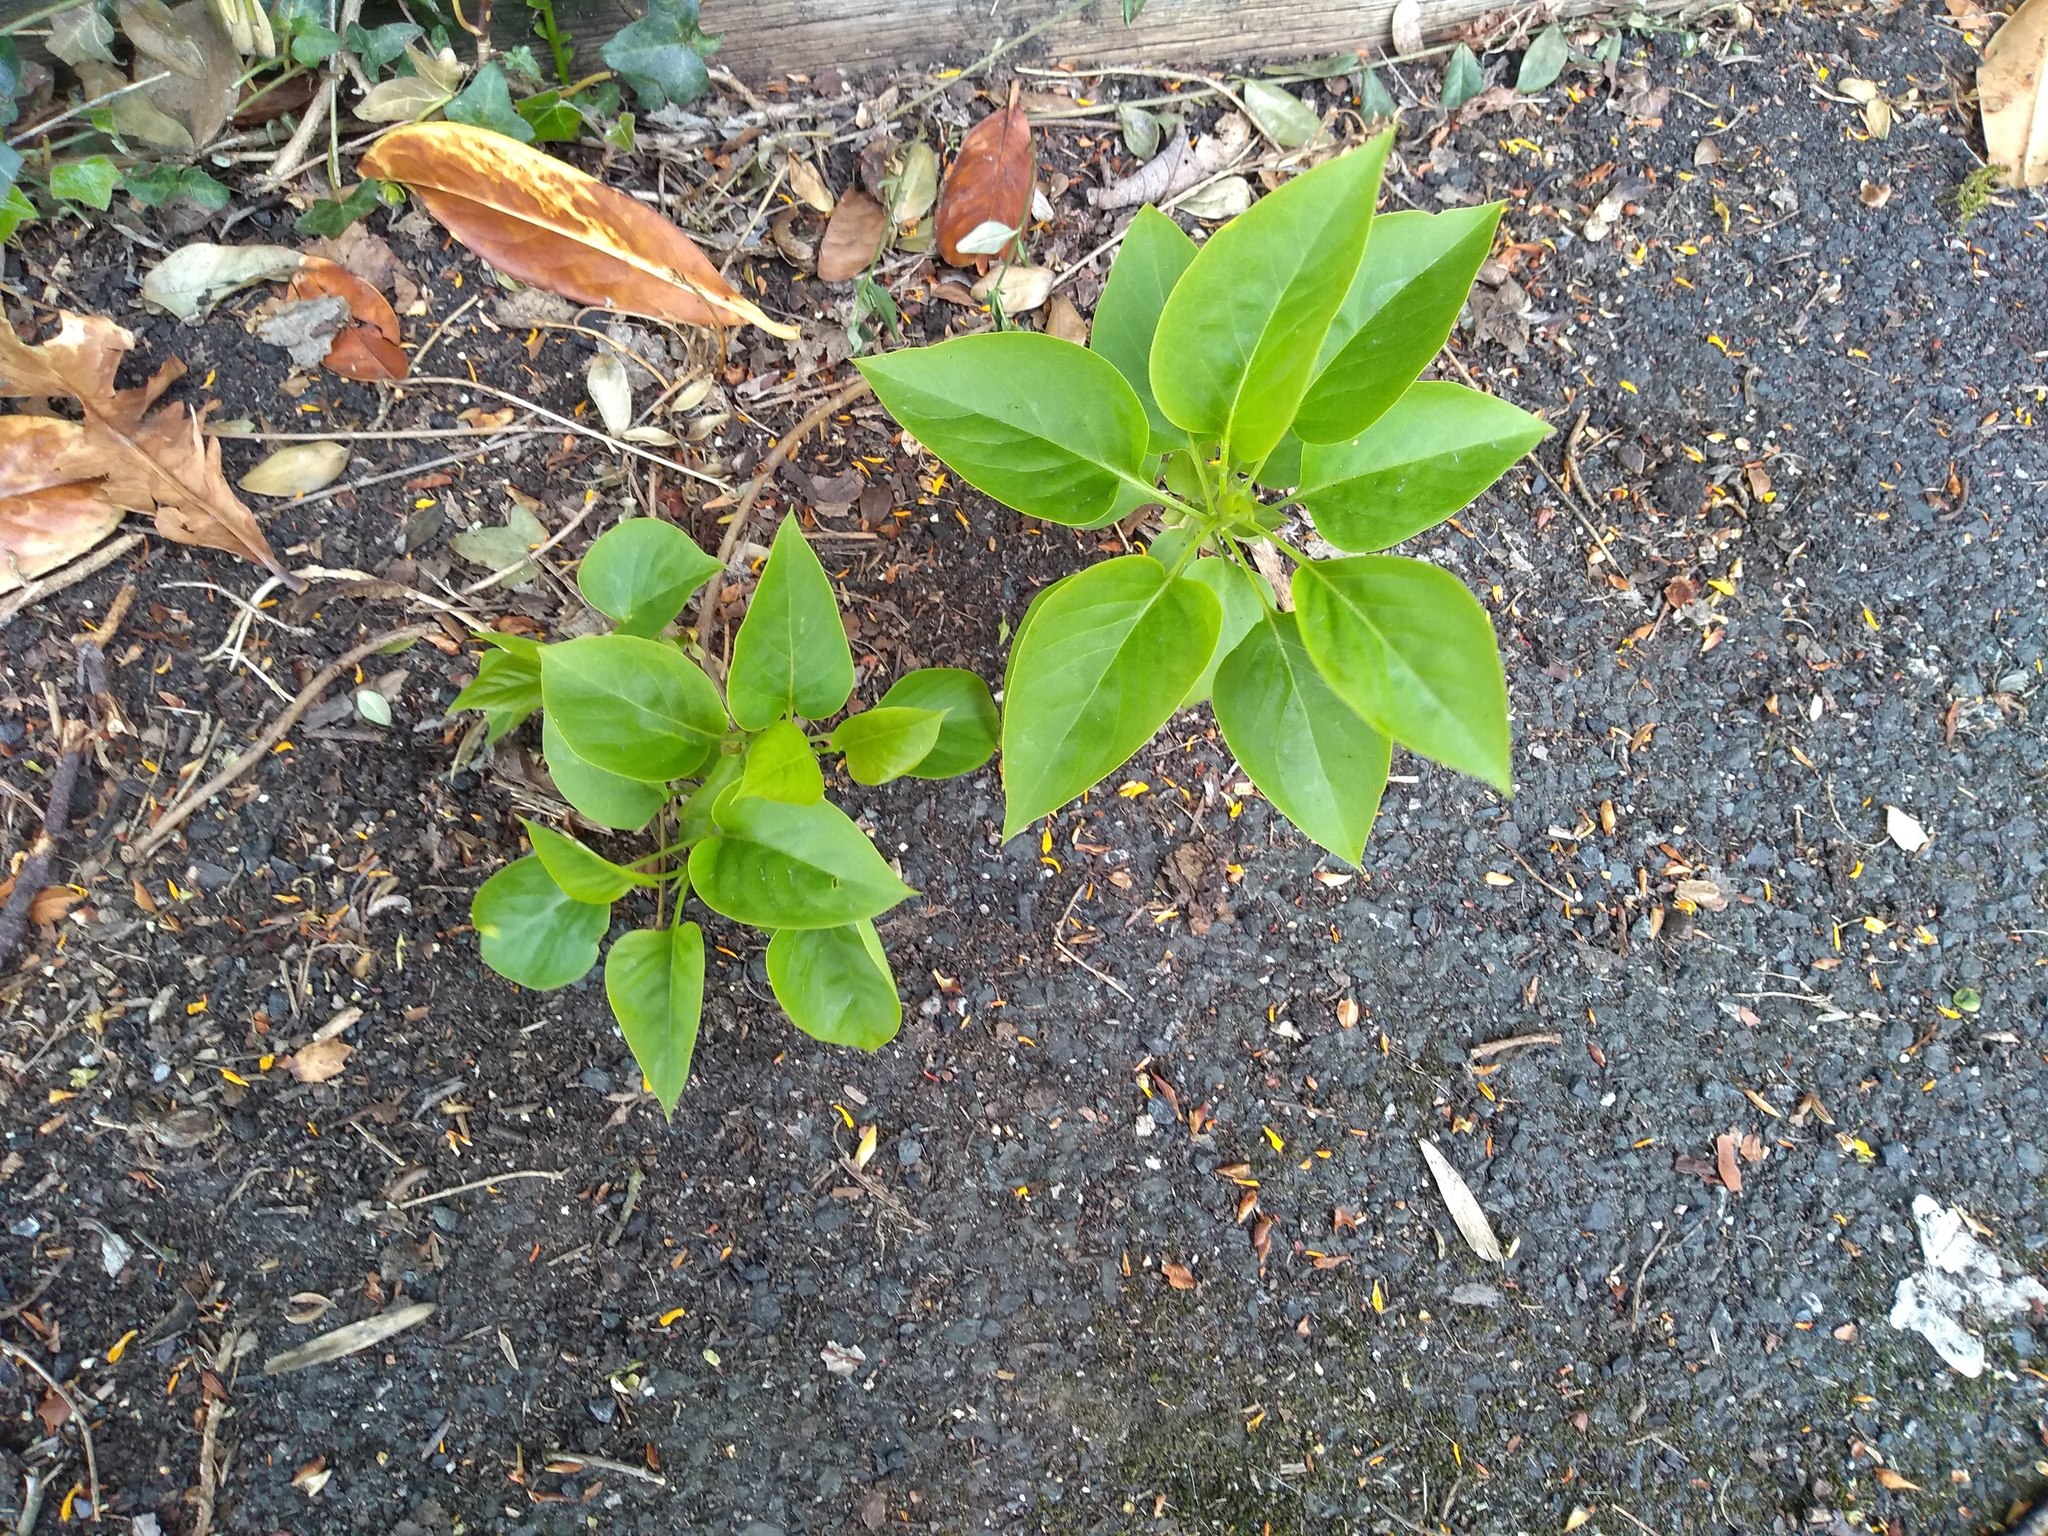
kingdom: Plantae
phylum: Tracheophyta
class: Magnoliopsida
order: Lamiales
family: Oleaceae
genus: Syringa
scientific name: Syringa vulgaris
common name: Common lilac
